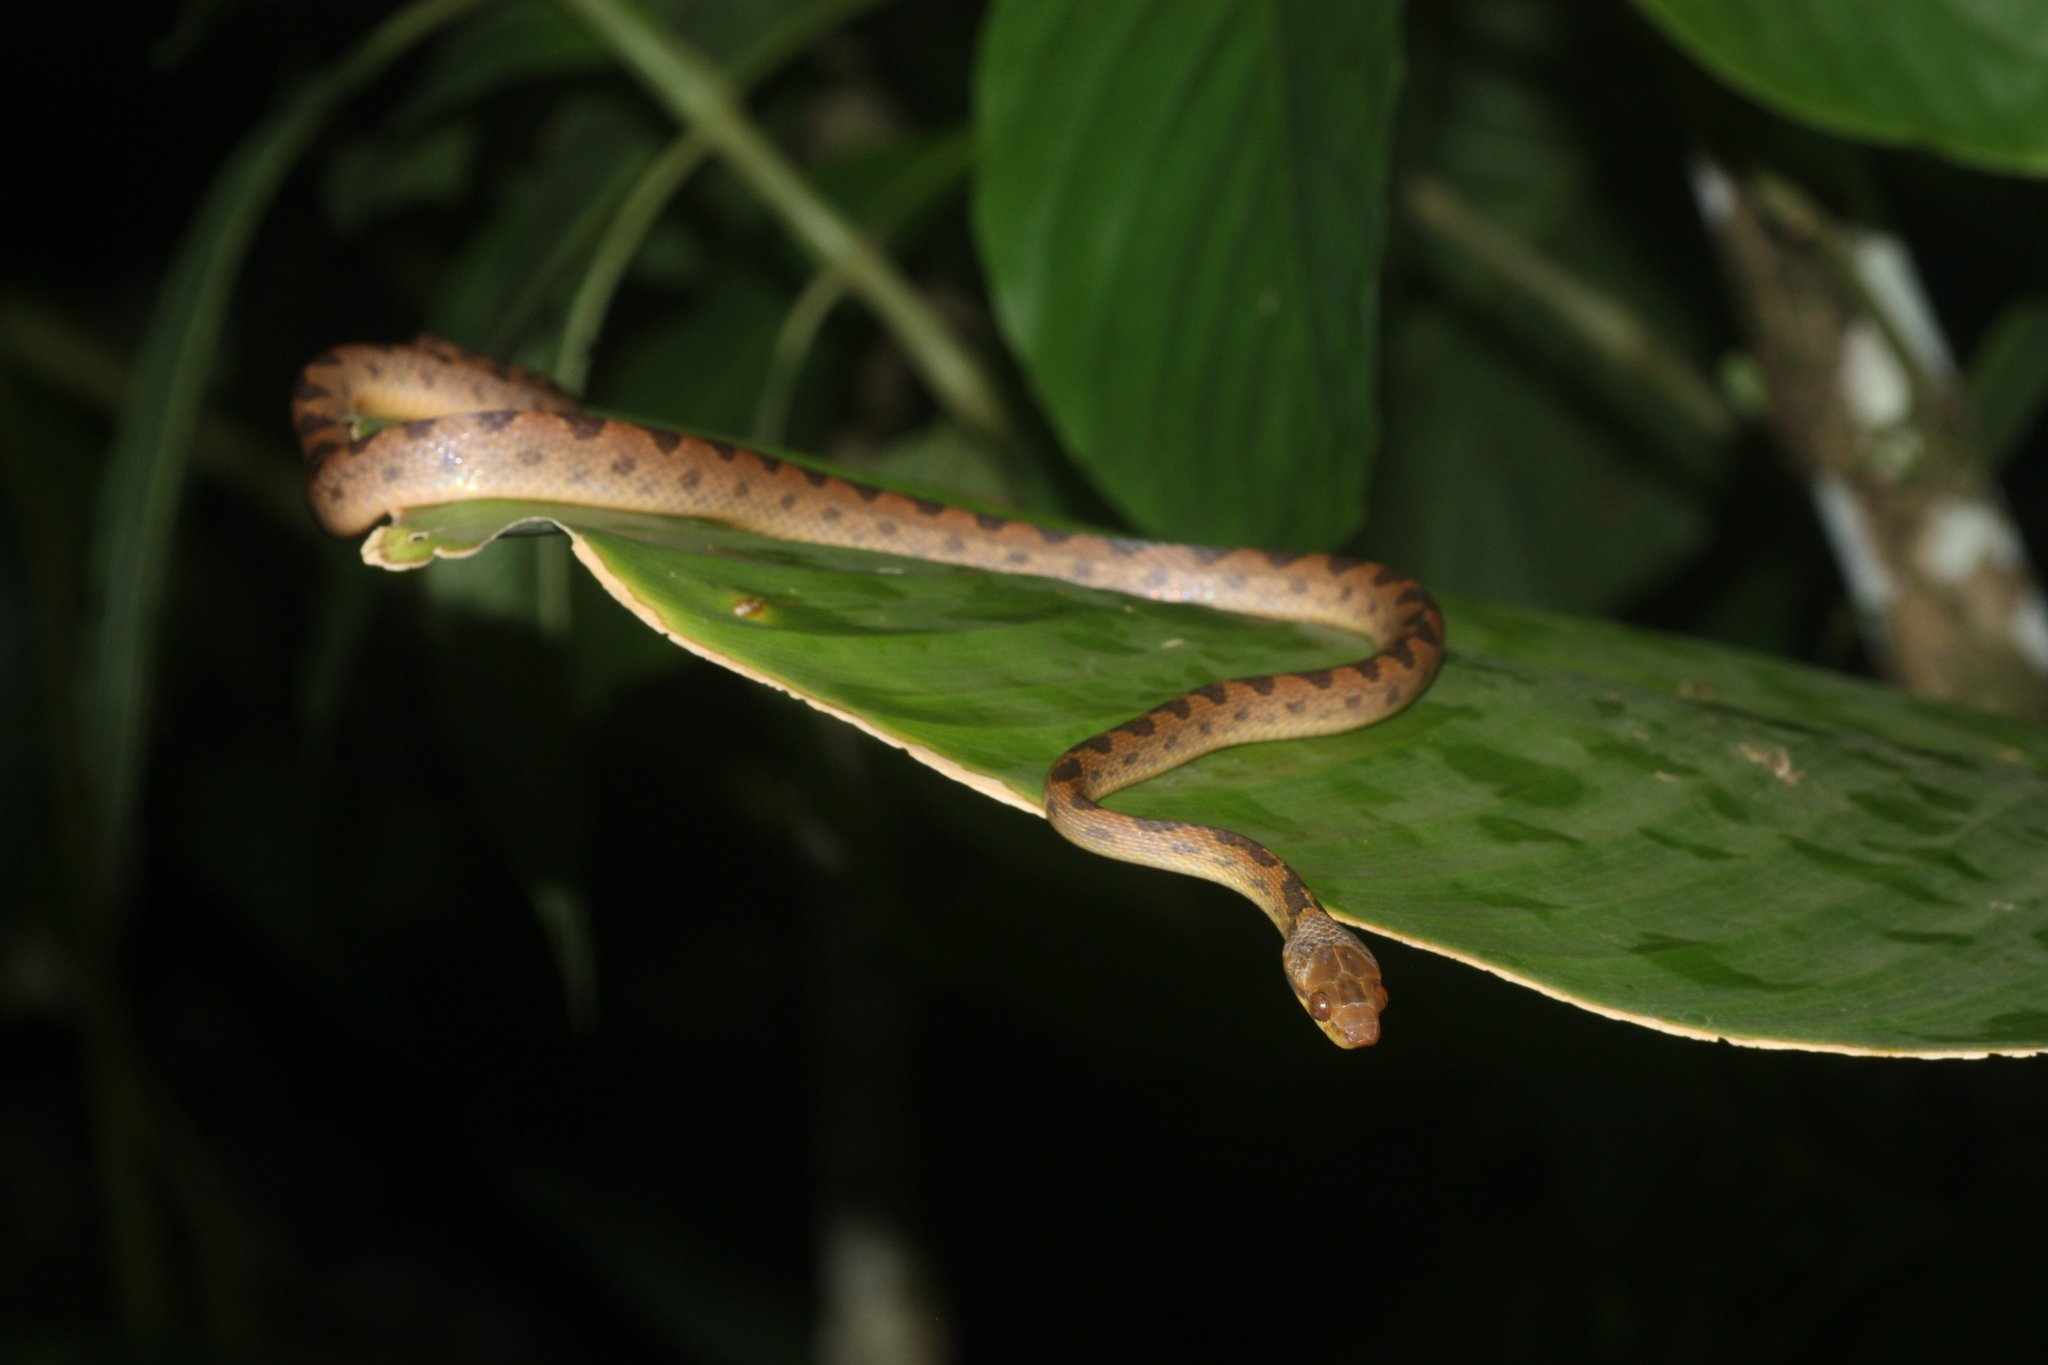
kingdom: Animalia
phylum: Chordata
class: Squamata
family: Colubridae
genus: Leptodeira
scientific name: Leptodeira ornata
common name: Northern cat-eyed snake
